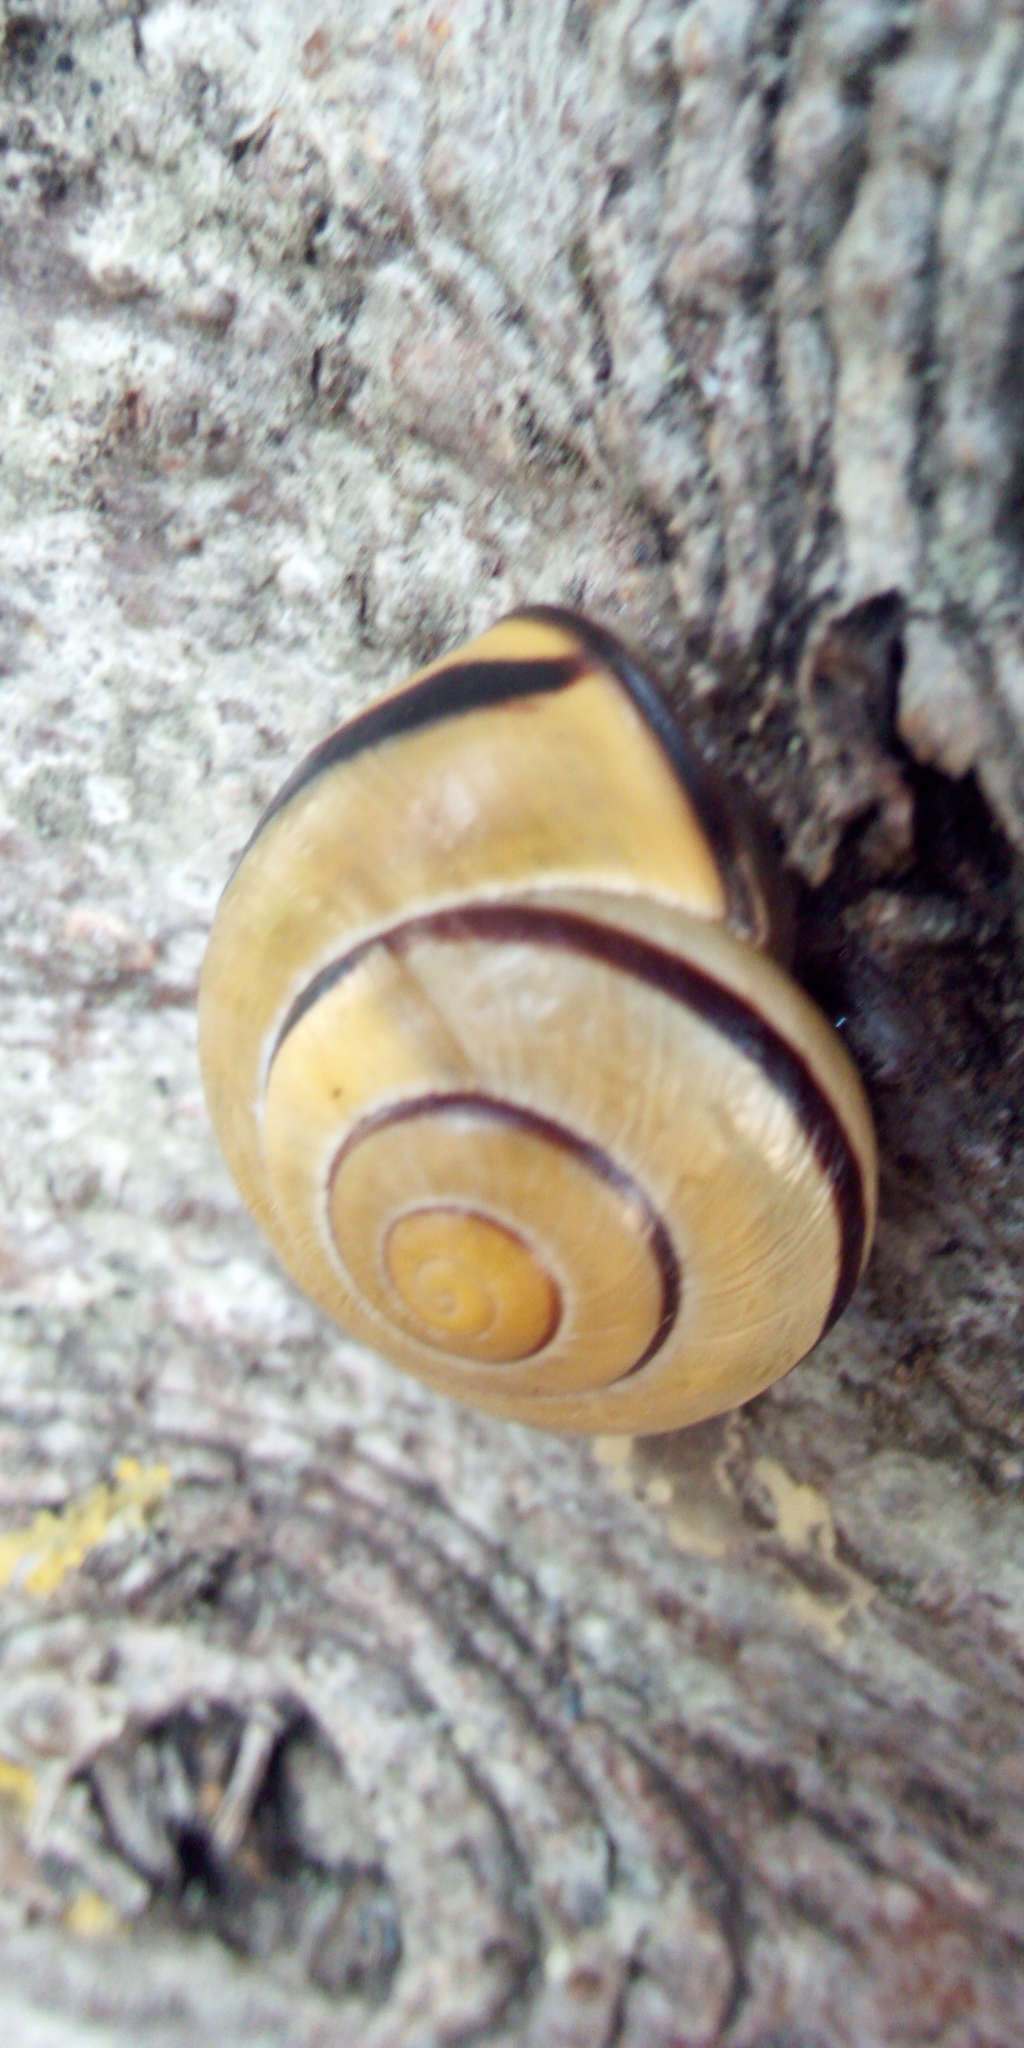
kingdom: Animalia
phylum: Mollusca
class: Gastropoda
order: Stylommatophora
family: Helicidae
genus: Cepaea
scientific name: Cepaea nemoralis
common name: Grovesnail
